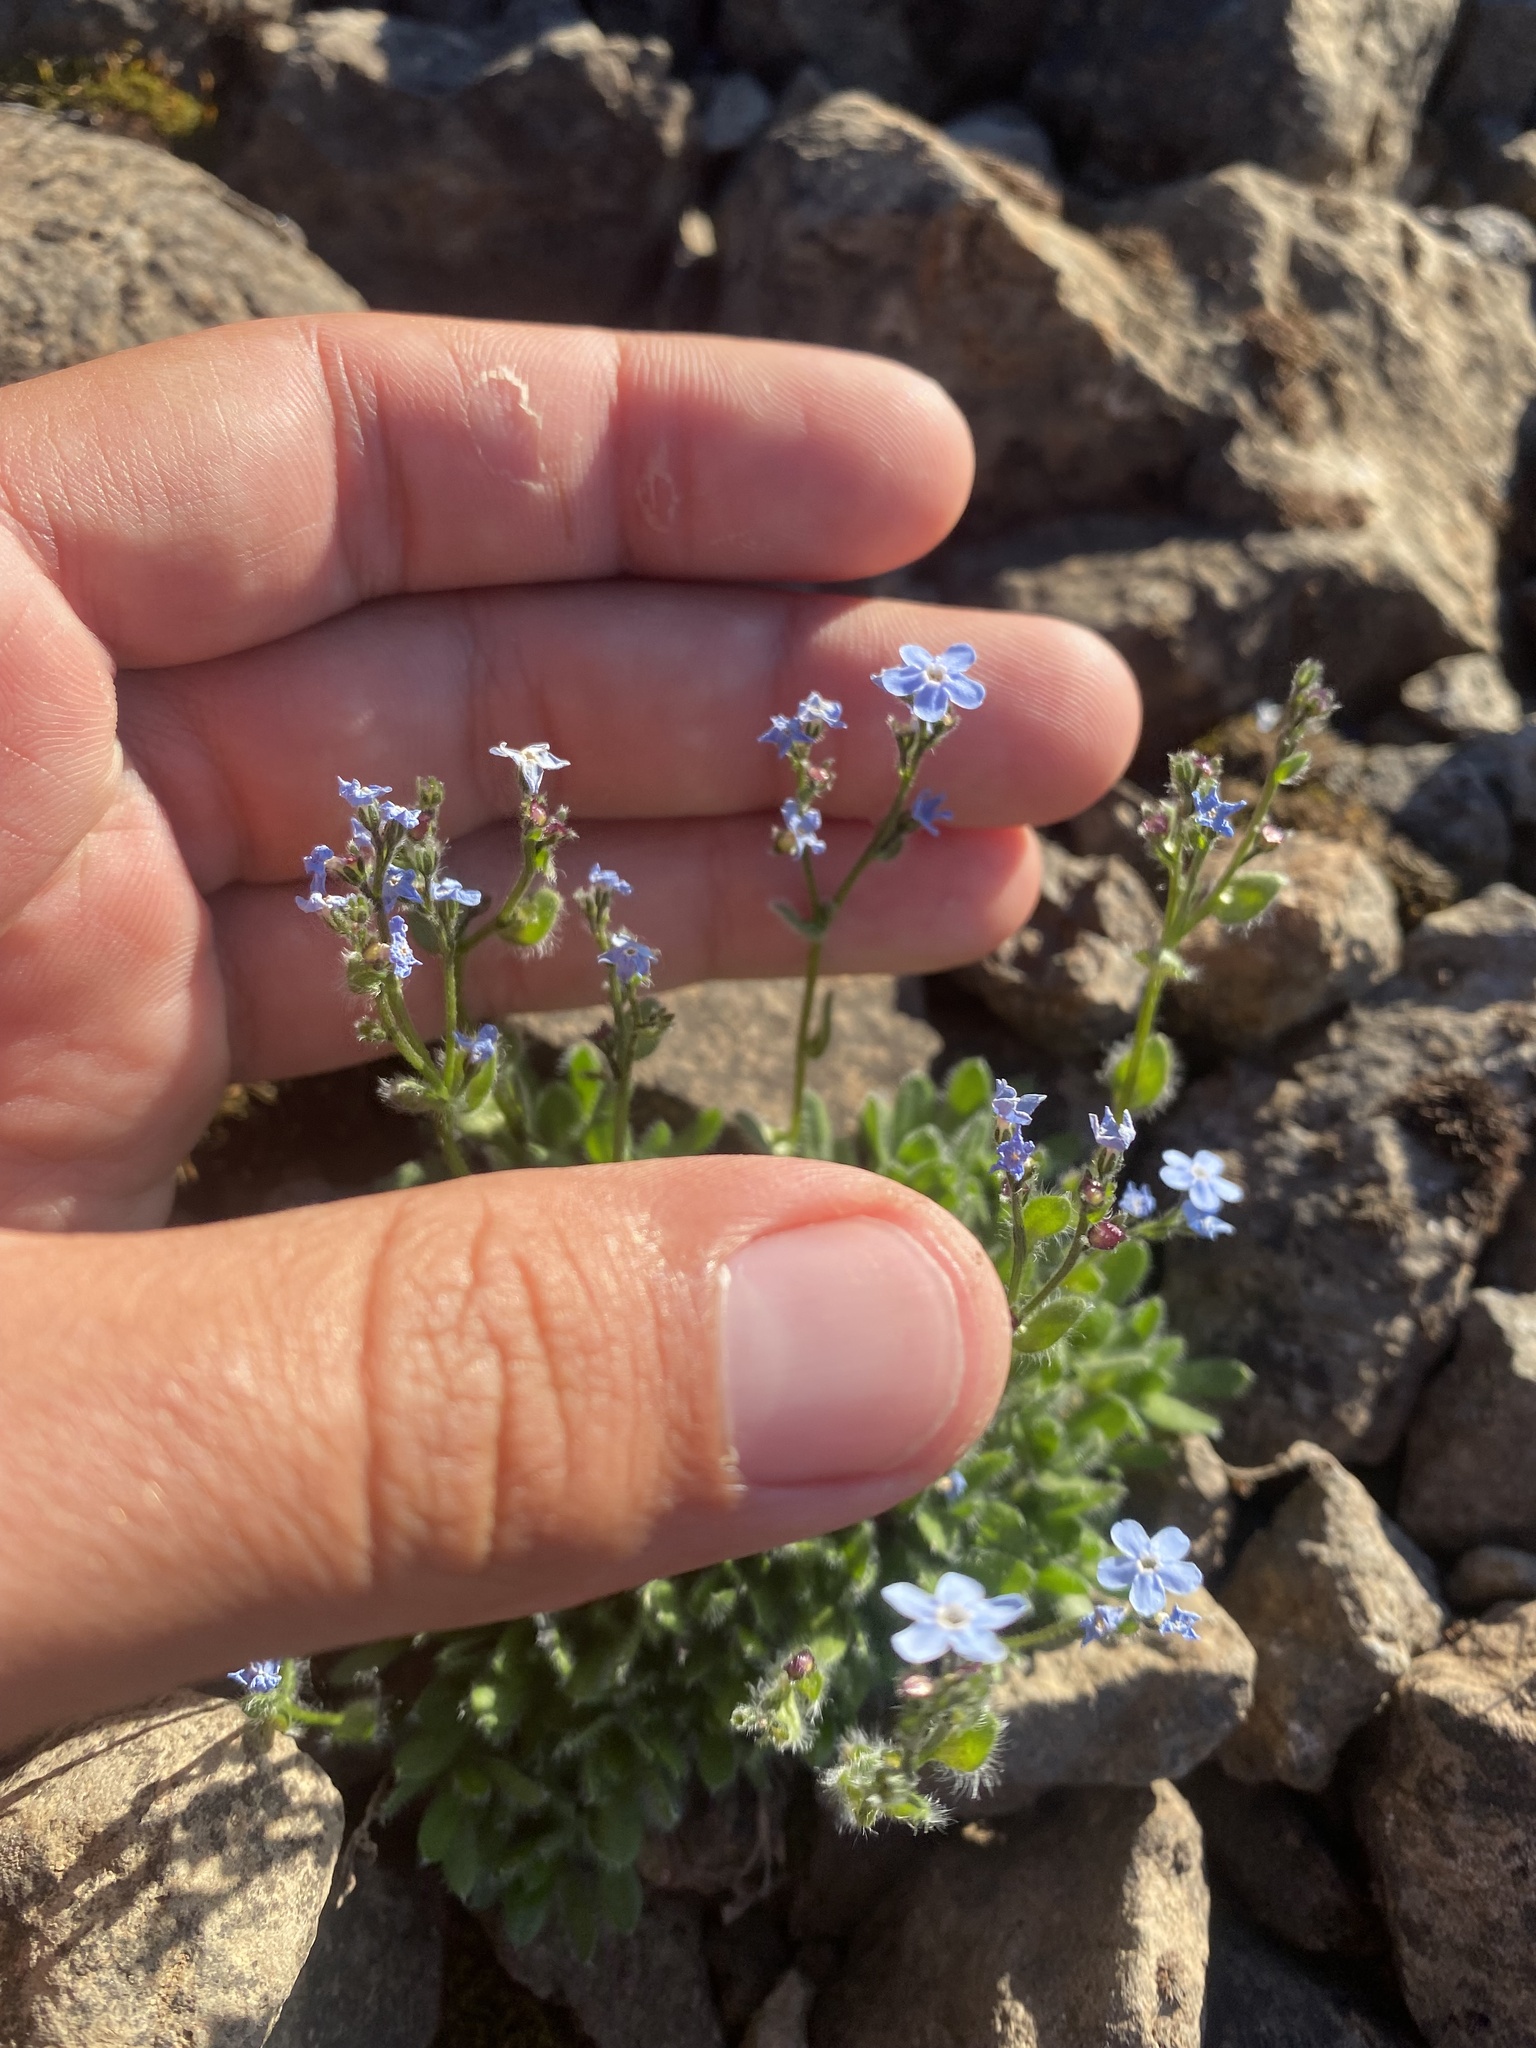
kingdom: Plantae
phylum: Tracheophyta
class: Magnoliopsida
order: Boraginales
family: Boraginaceae
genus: Eritrichium
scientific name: Eritrichium villosum
